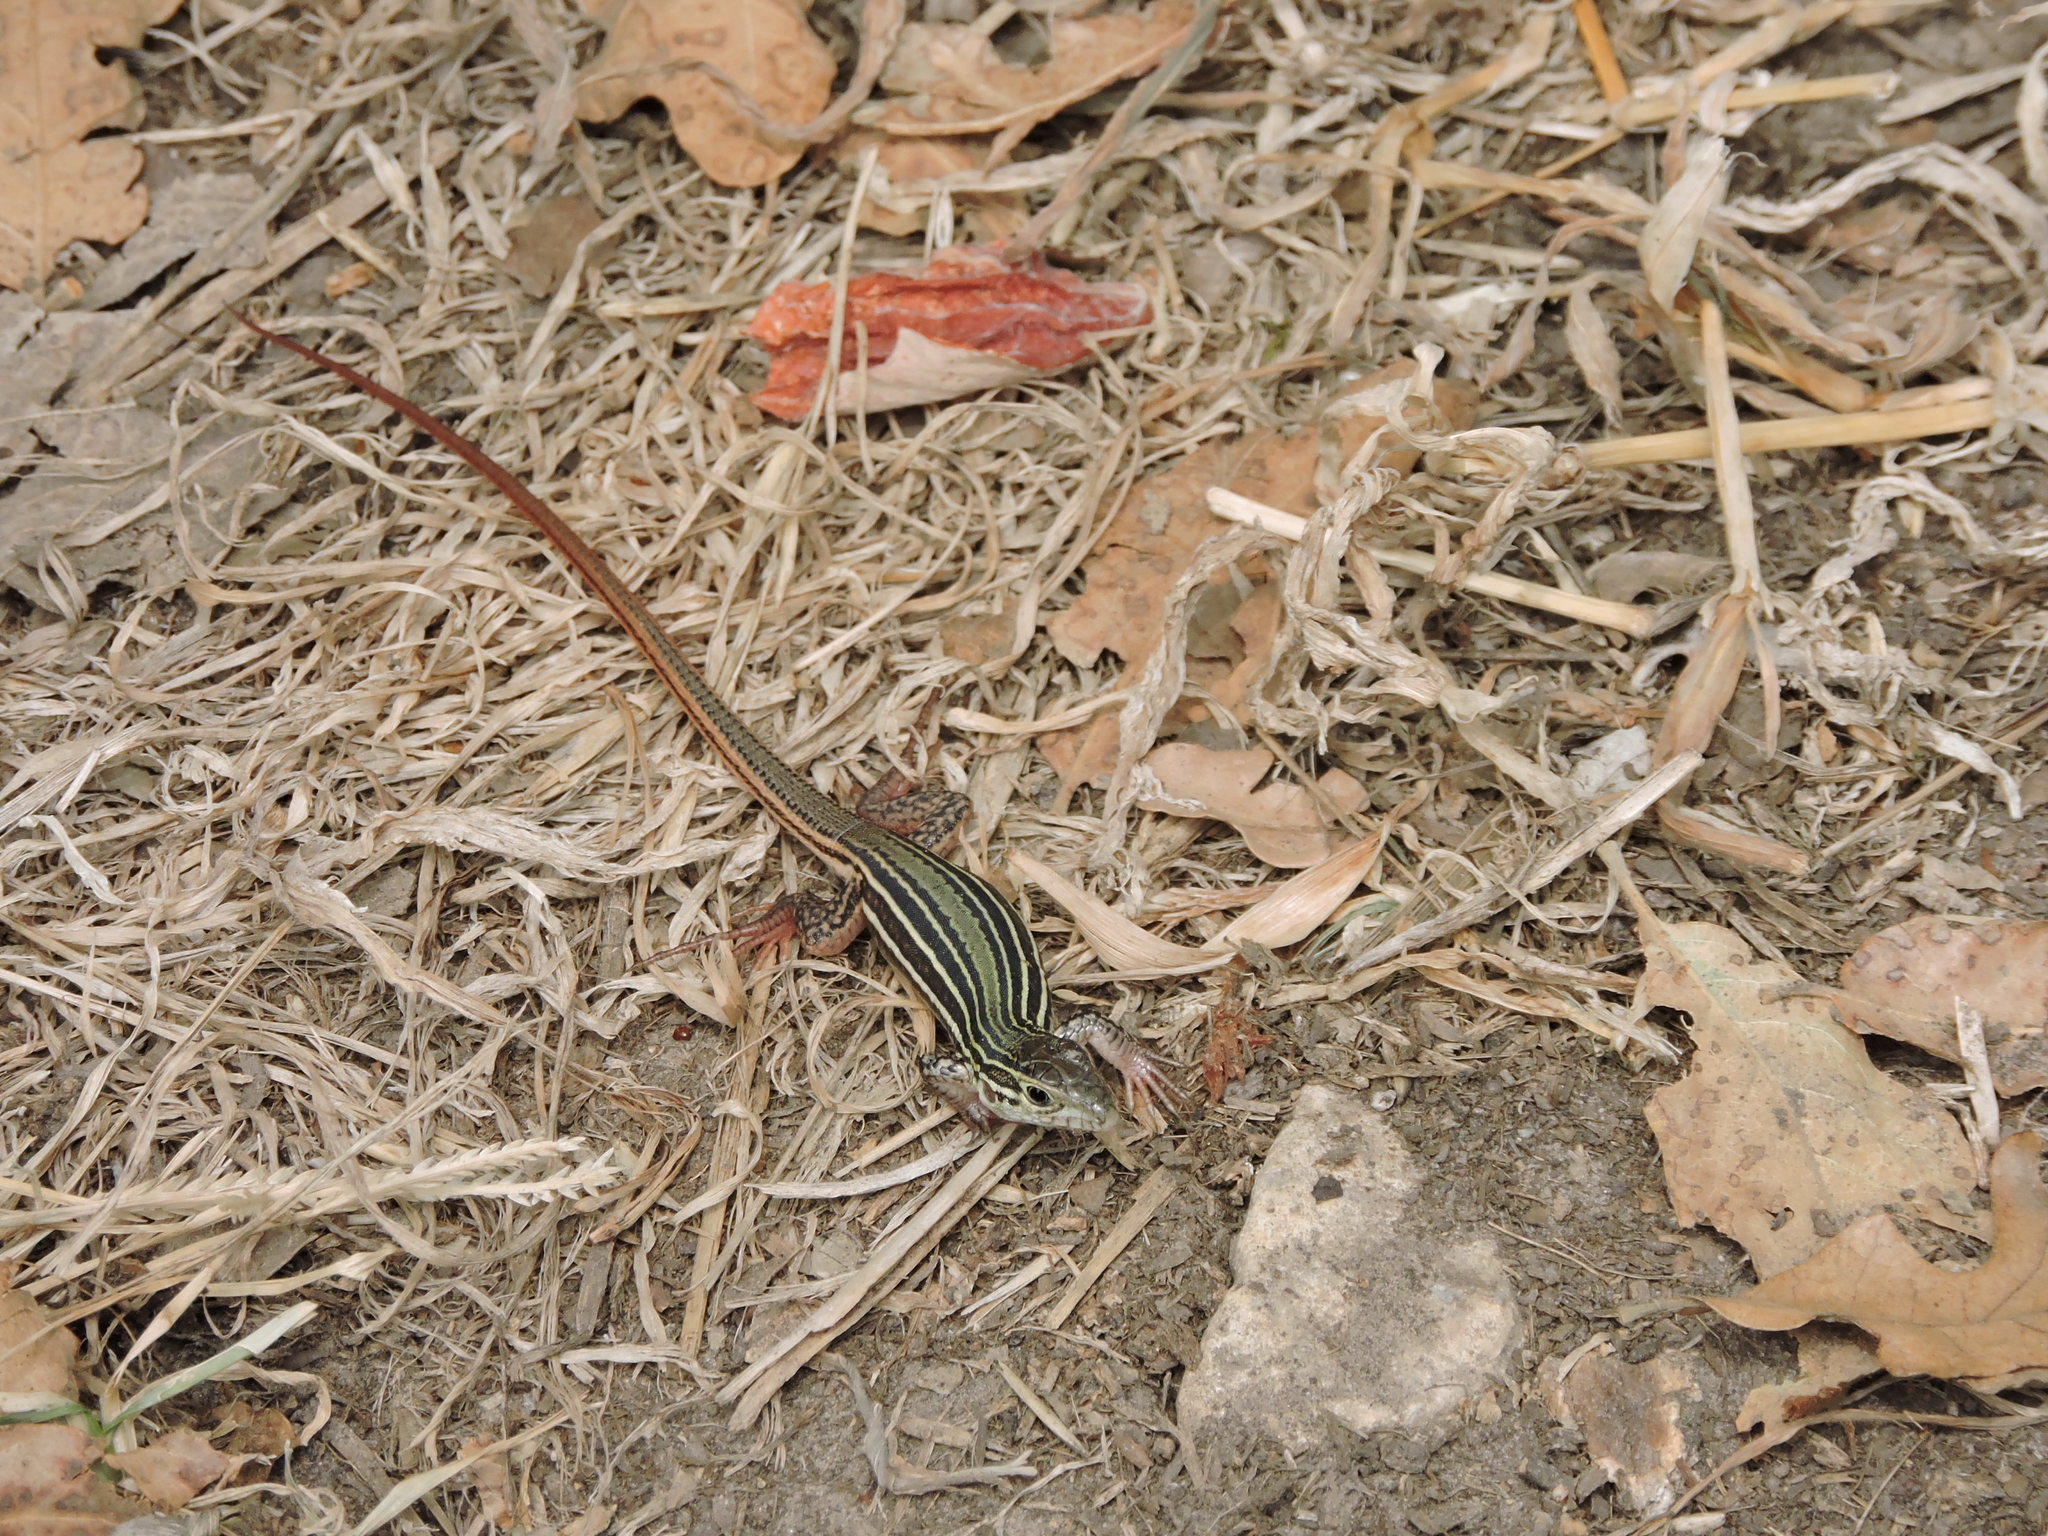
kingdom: Animalia
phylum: Chordata
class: Squamata
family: Teiidae
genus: Aspidoscelis
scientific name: Aspidoscelis gularis
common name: Eastern spotted whiptail
